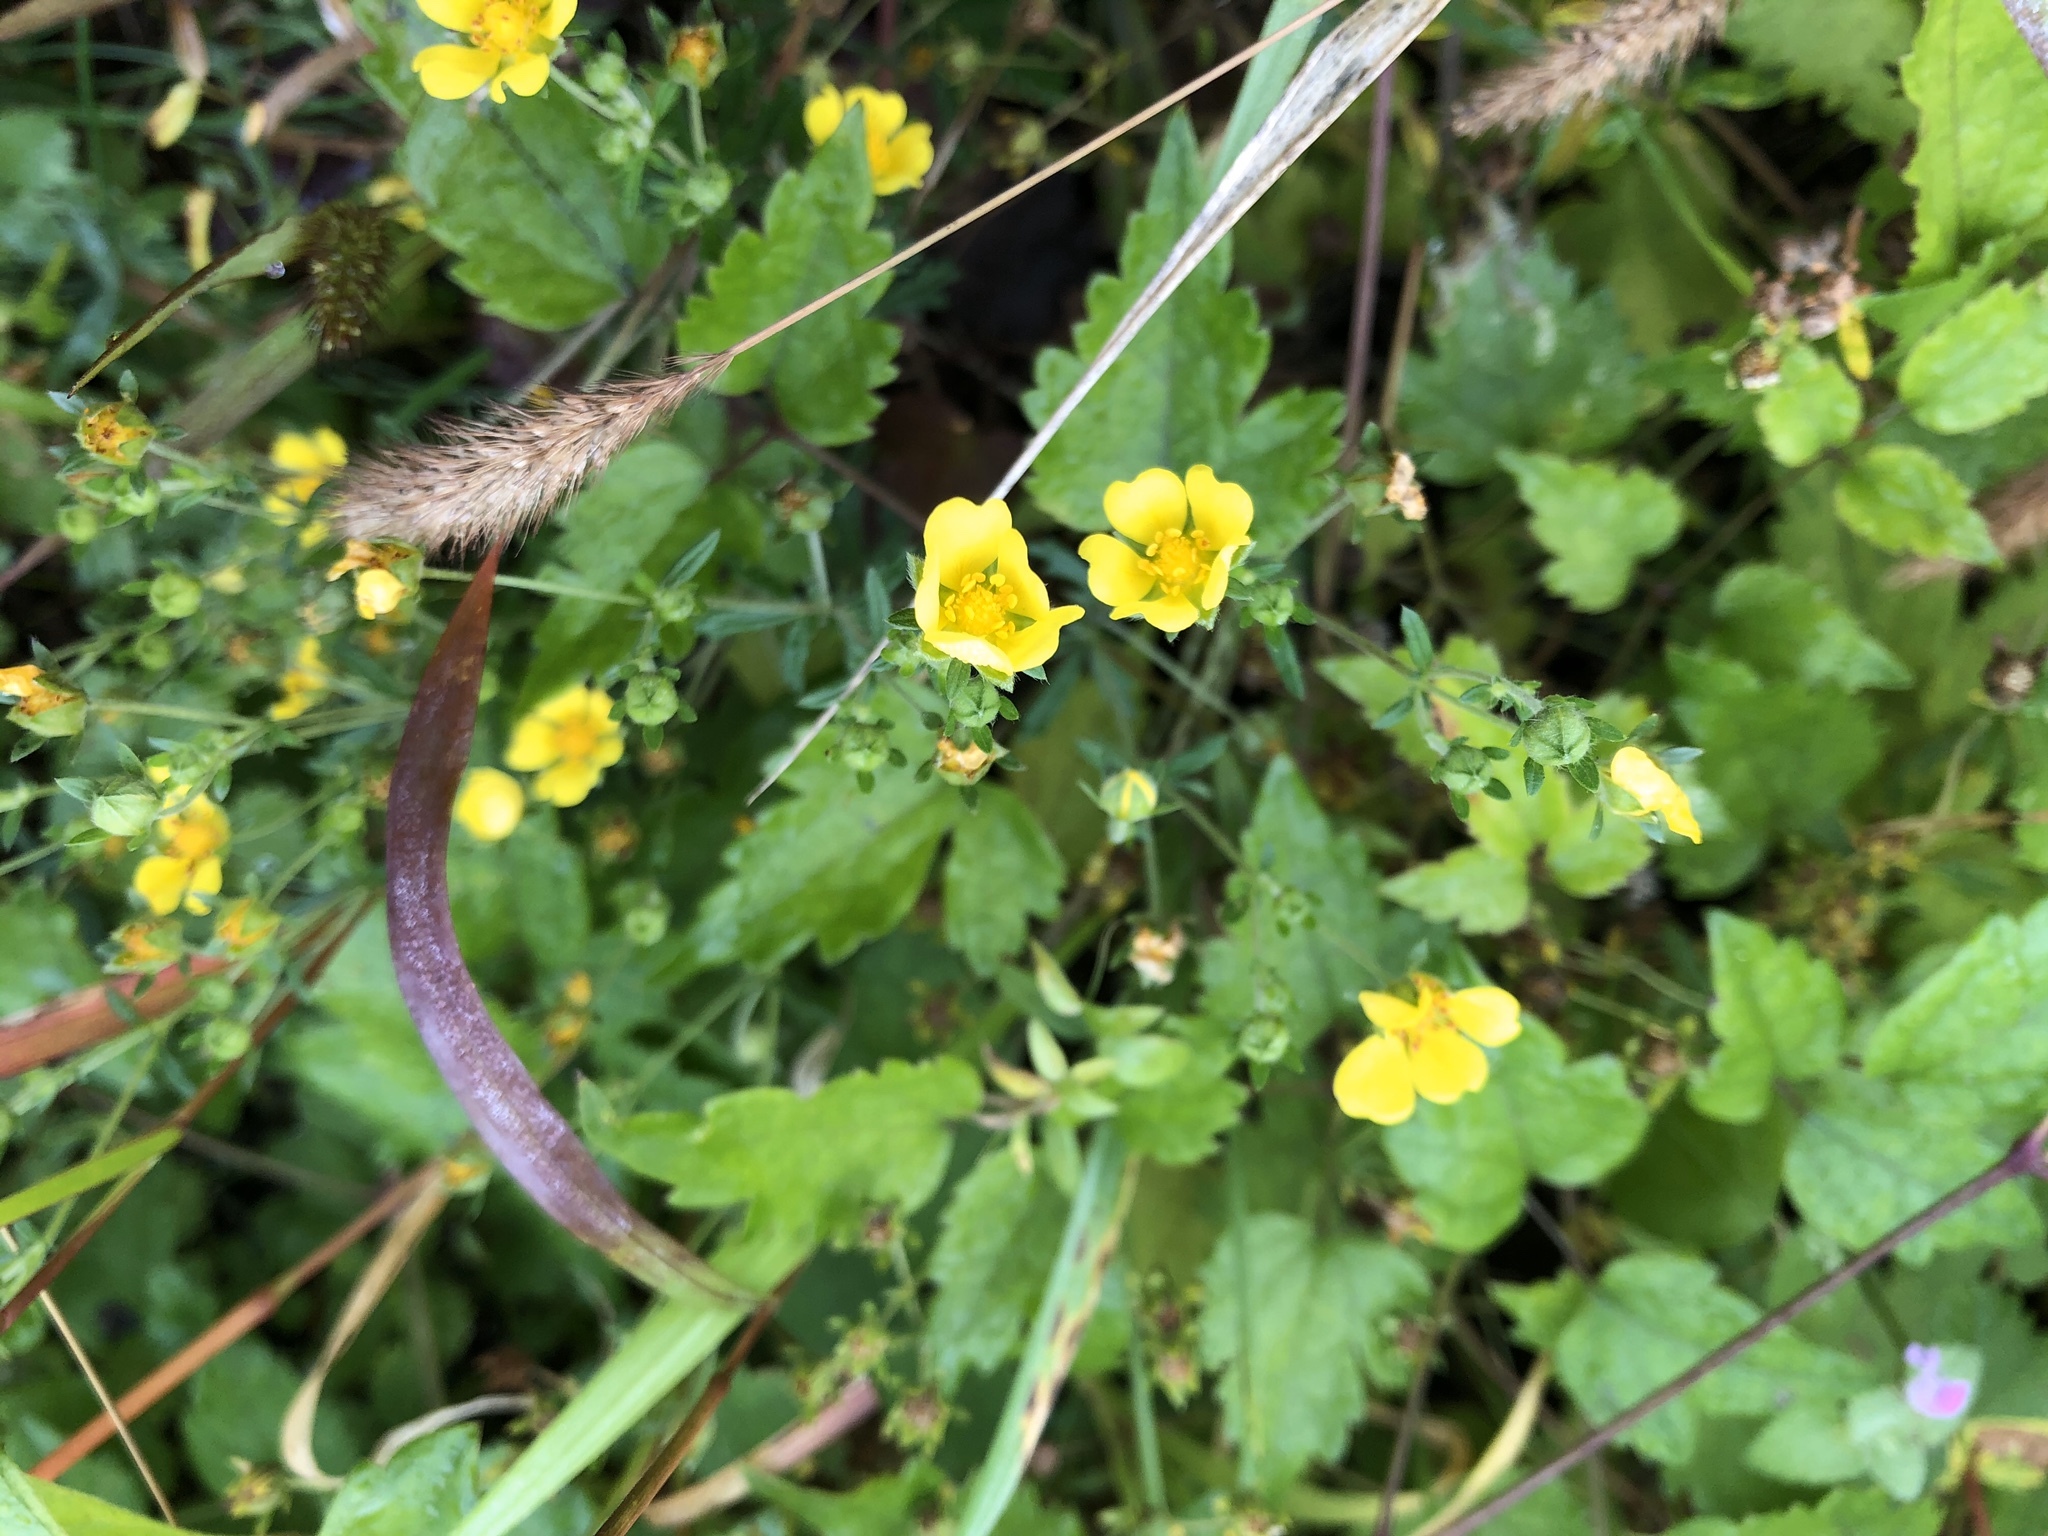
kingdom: Plantae
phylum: Tracheophyta
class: Magnoliopsida
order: Rosales
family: Rosaceae
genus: Potentilla
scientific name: Potentilla argentea
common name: Hoary cinquefoil
